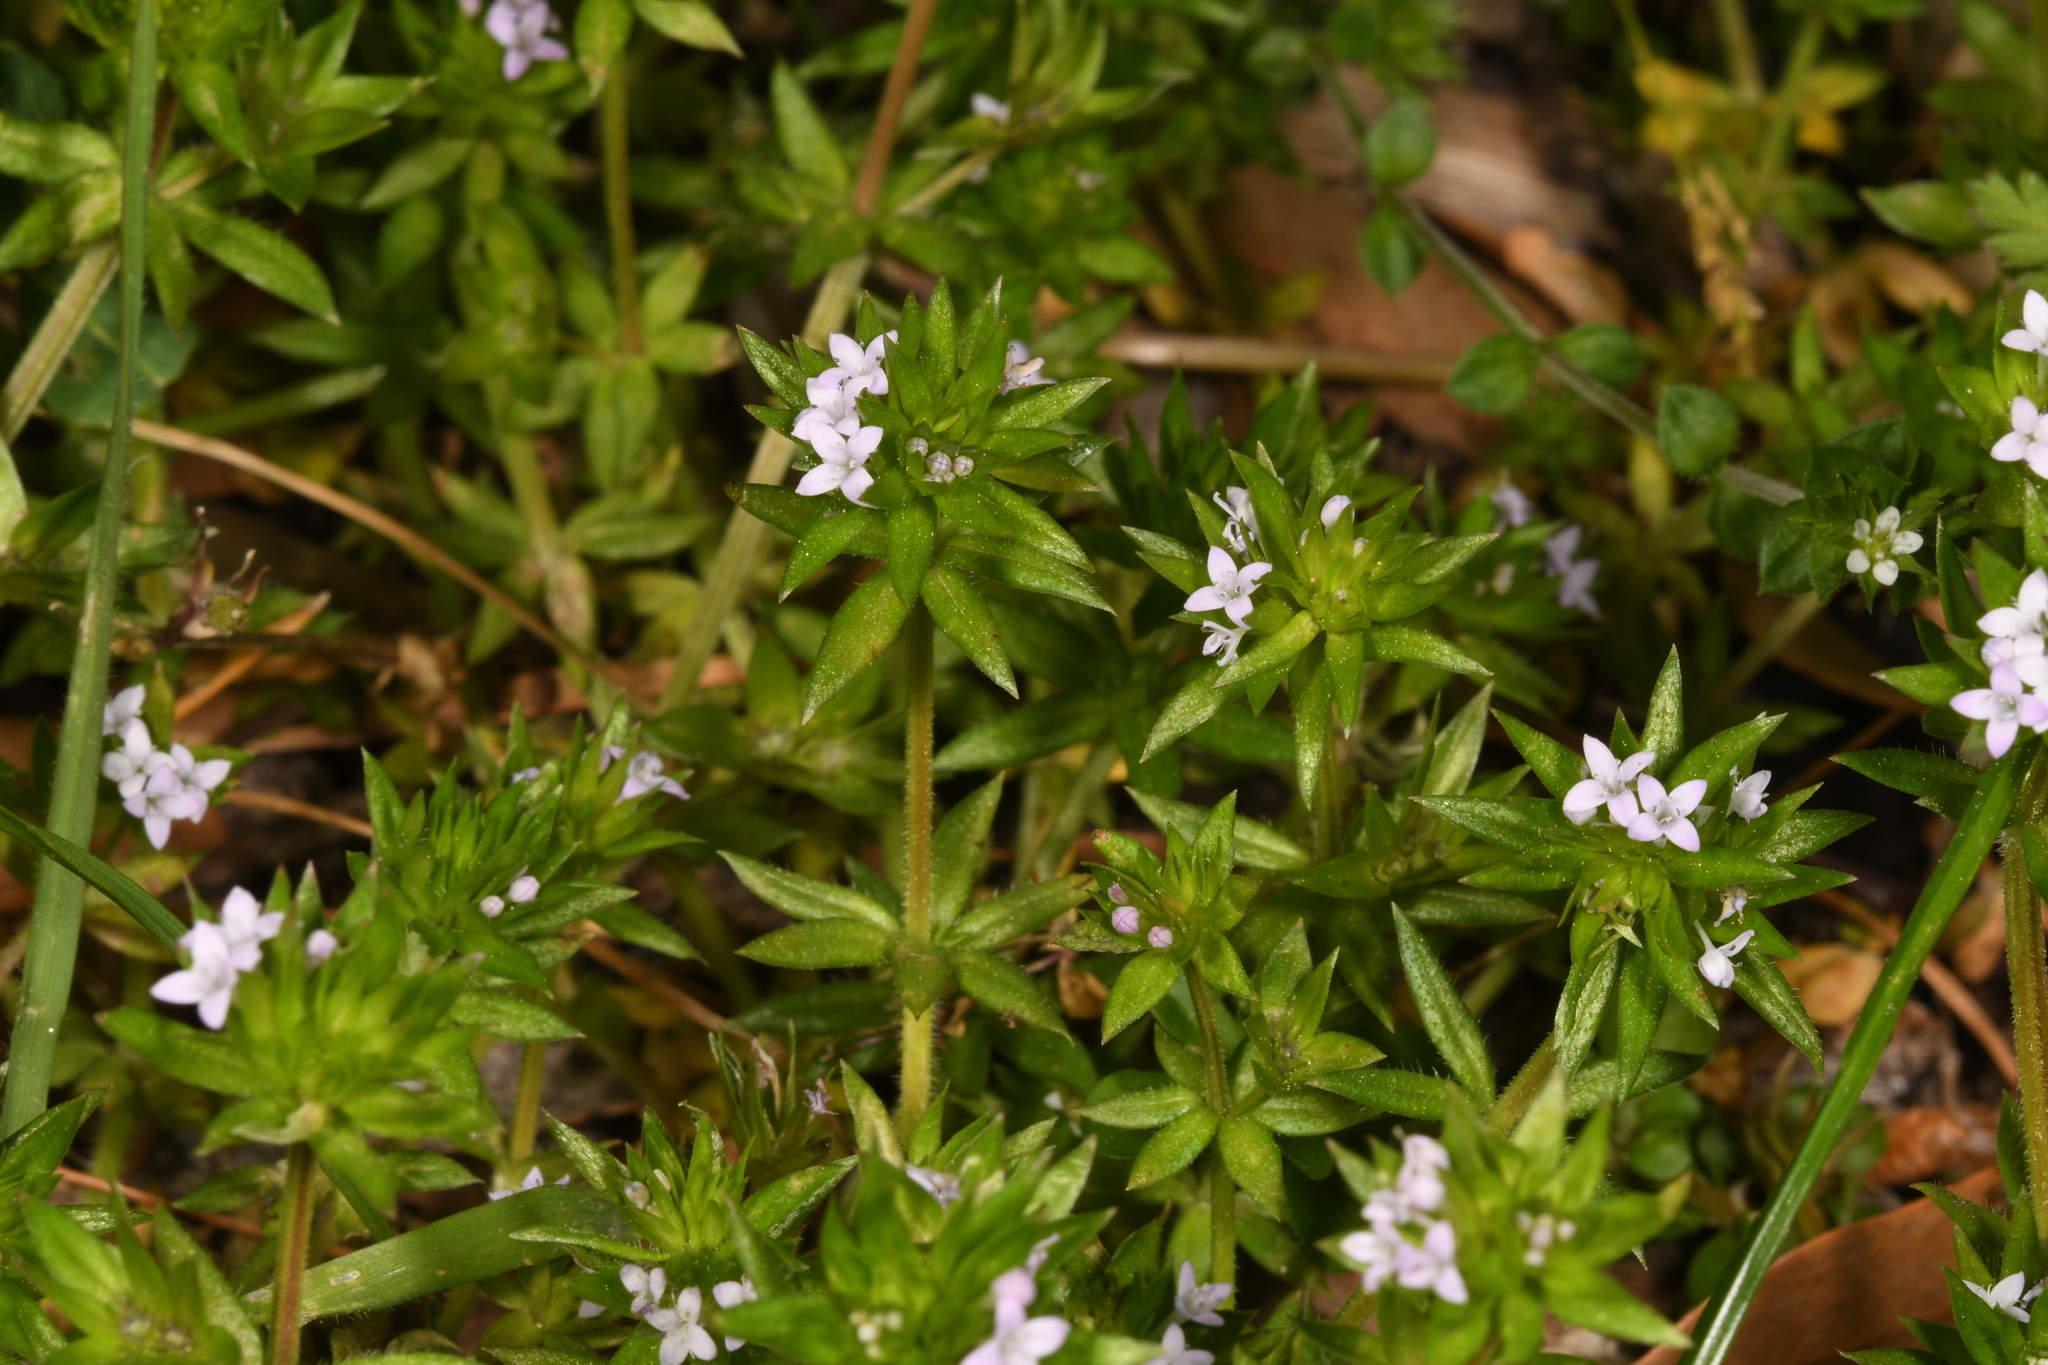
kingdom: Plantae
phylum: Tracheophyta
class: Magnoliopsida
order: Gentianales
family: Rubiaceae
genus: Sherardia
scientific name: Sherardia arvensis
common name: Field madder
